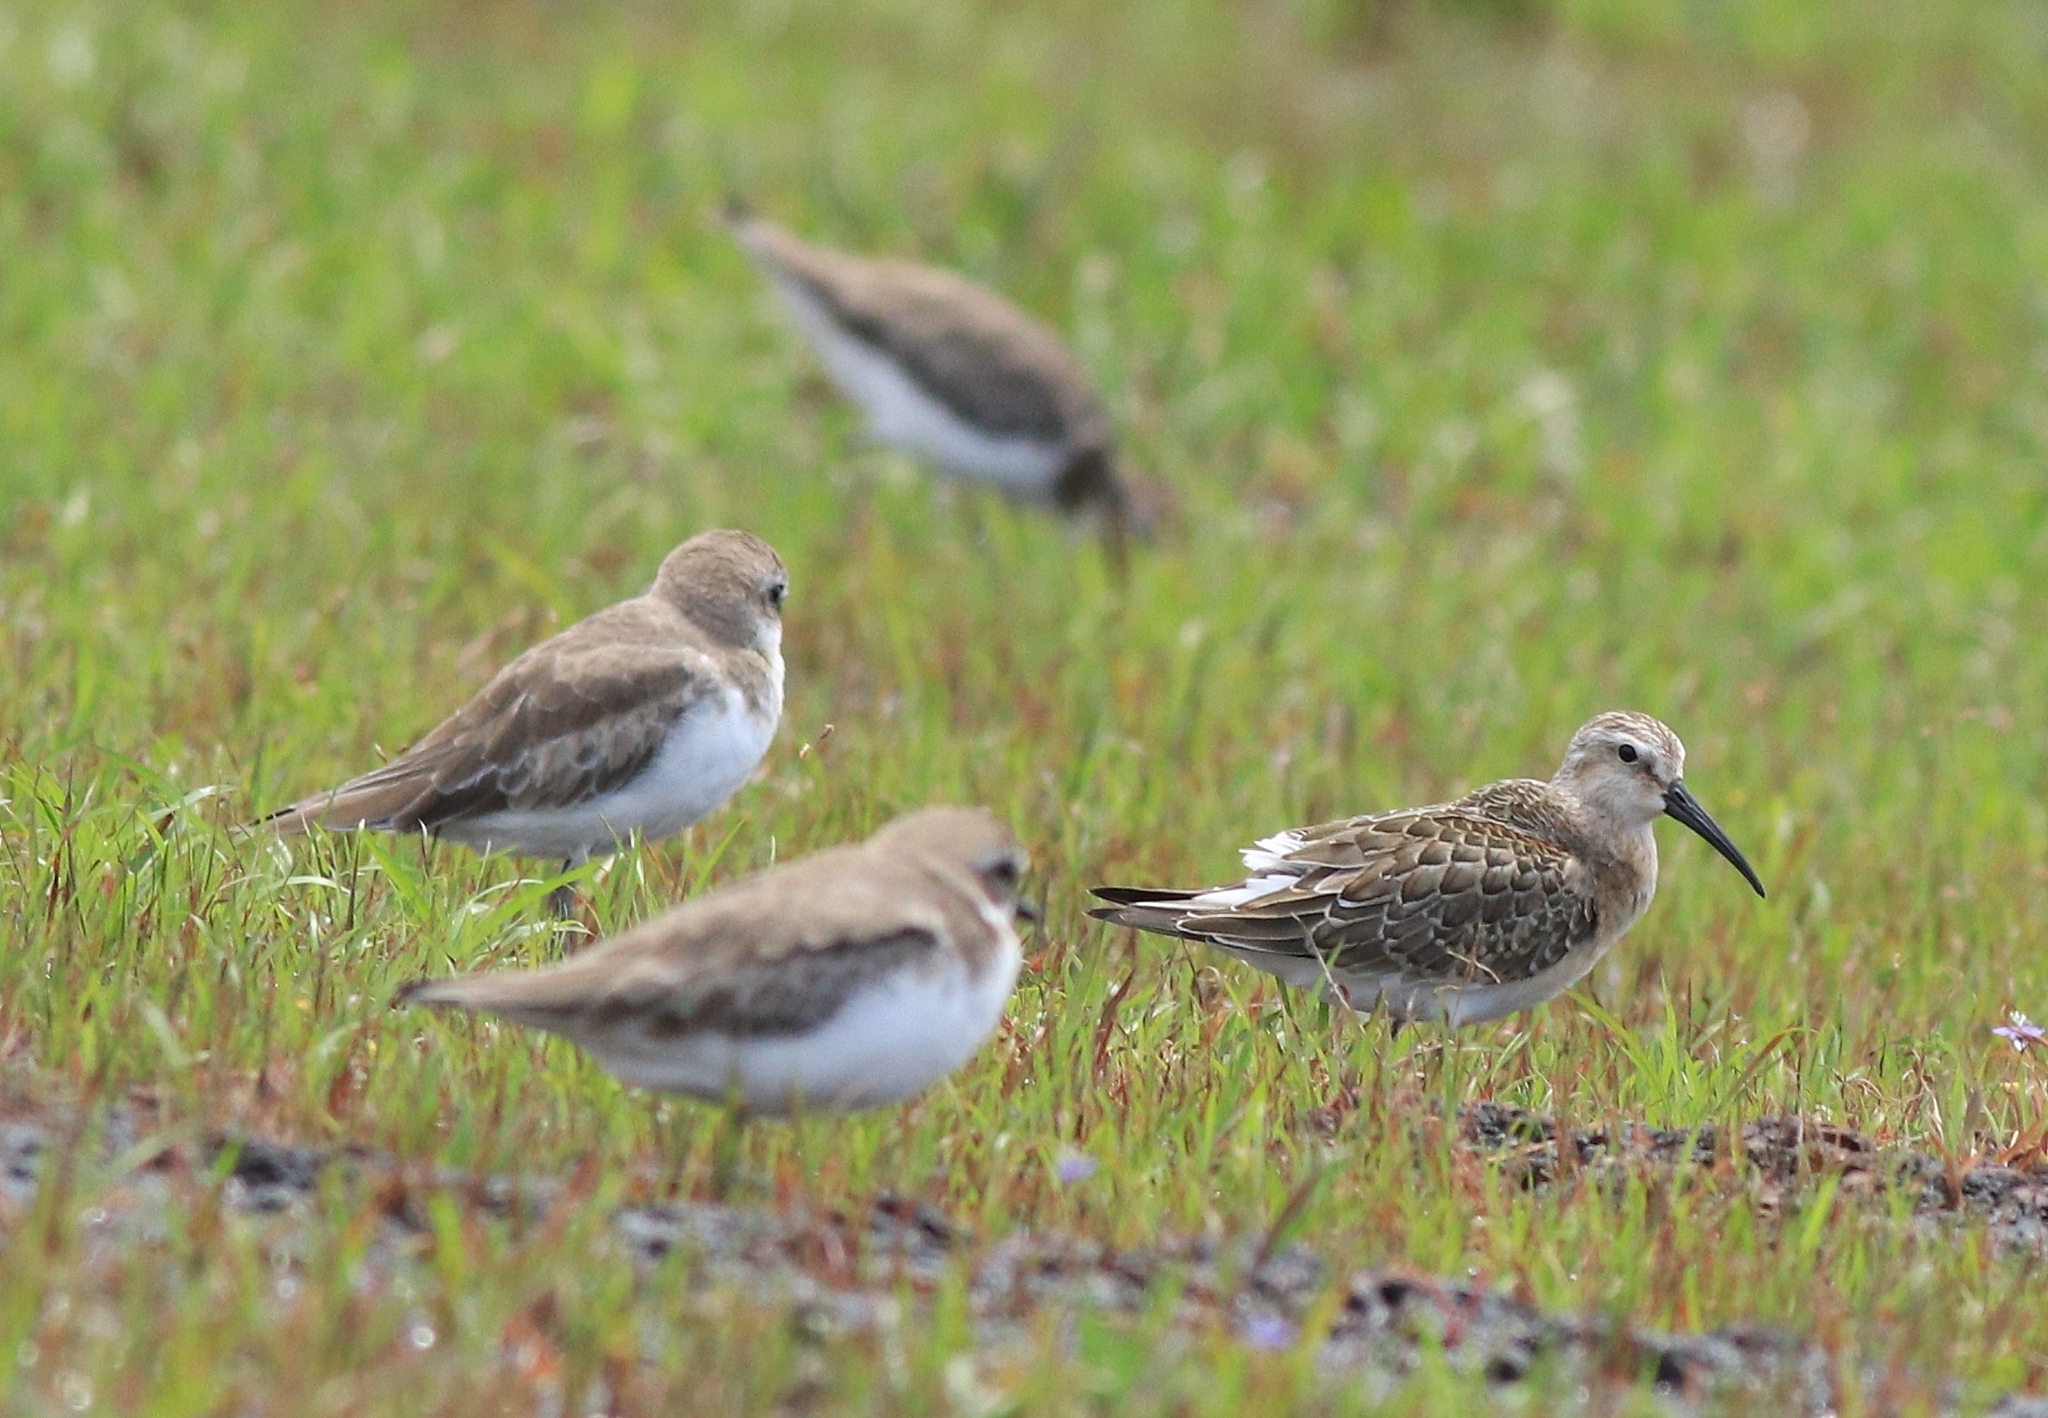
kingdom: Animalia
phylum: Chordata
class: Aves
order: Charadriiformes
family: Scolopacidae
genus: Calidris
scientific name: Calidris ferruginea
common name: Curlew sandpiper
